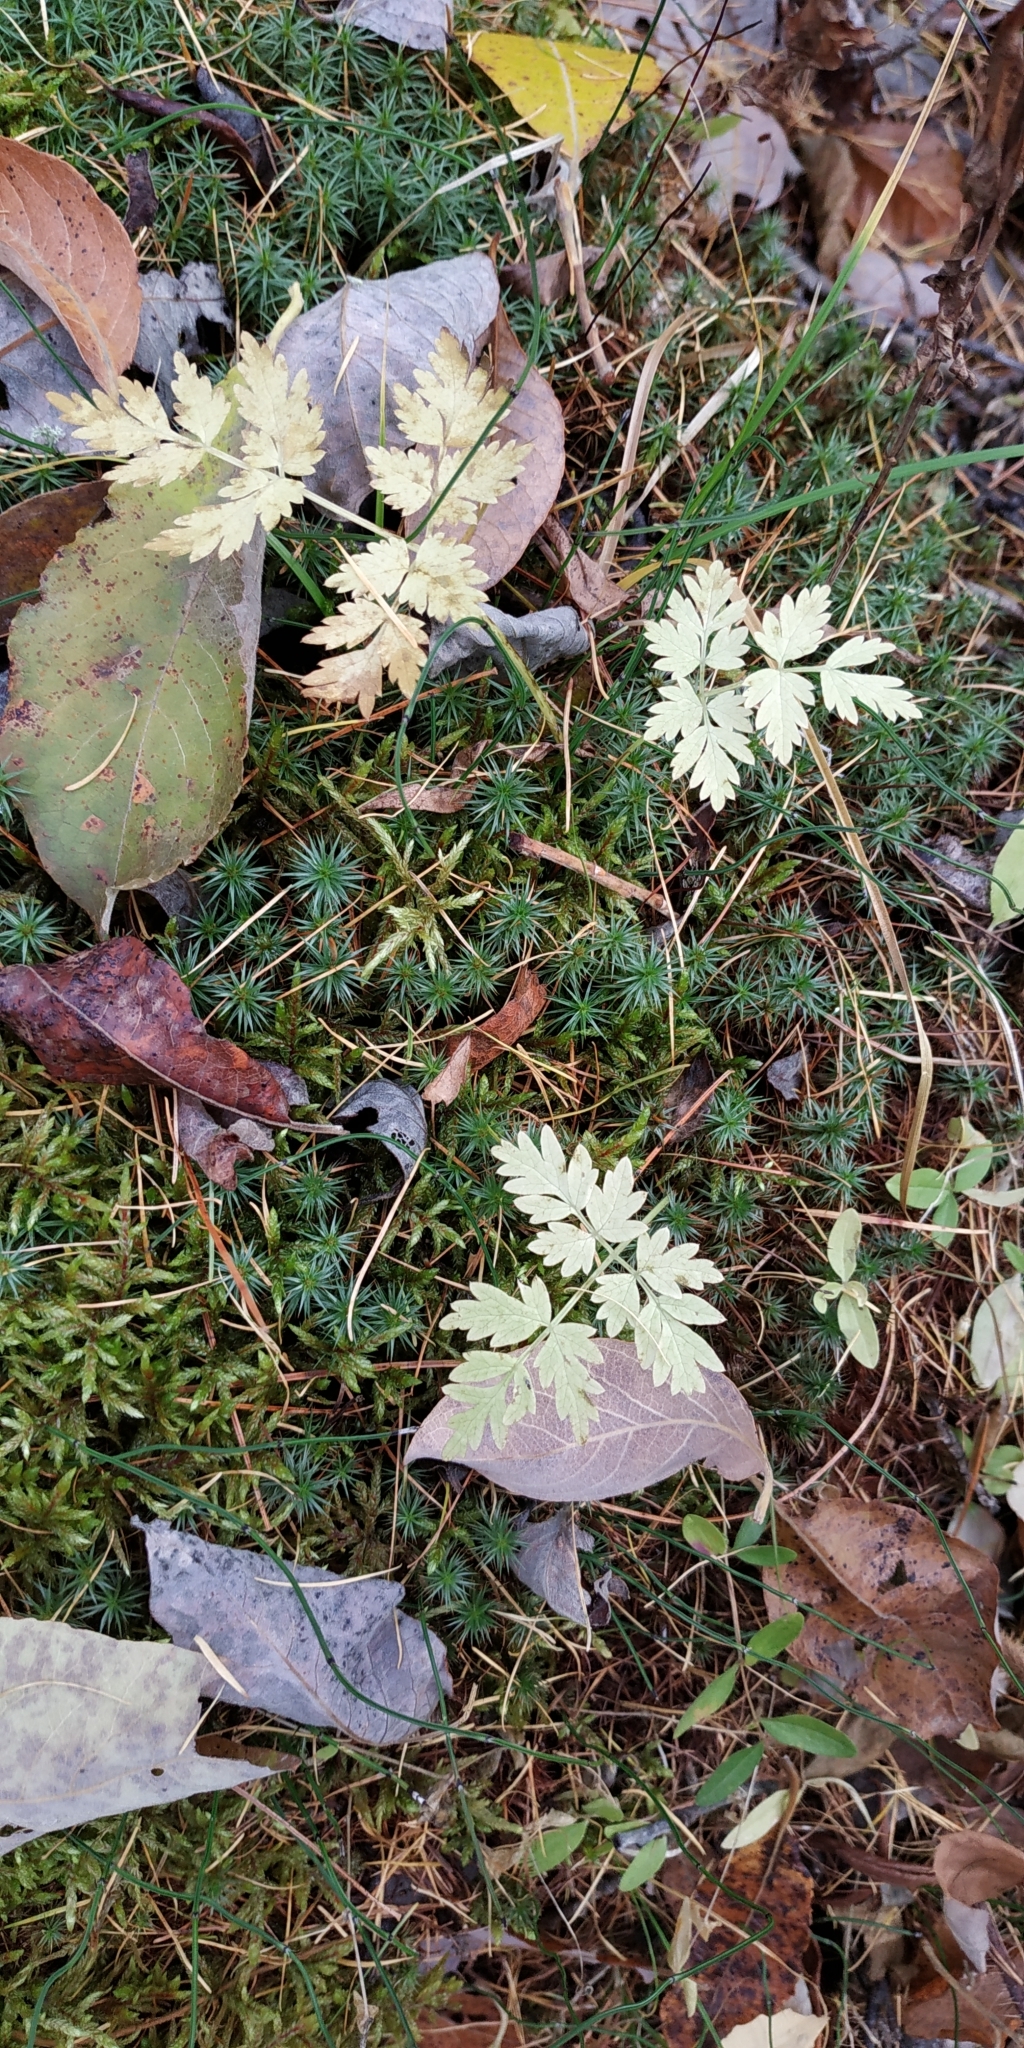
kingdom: Plantae
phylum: Tracheophyta
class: Magnoliopsida
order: Apiales
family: Apiaceae
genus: Aegopodium
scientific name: Aegopodium alpestre
